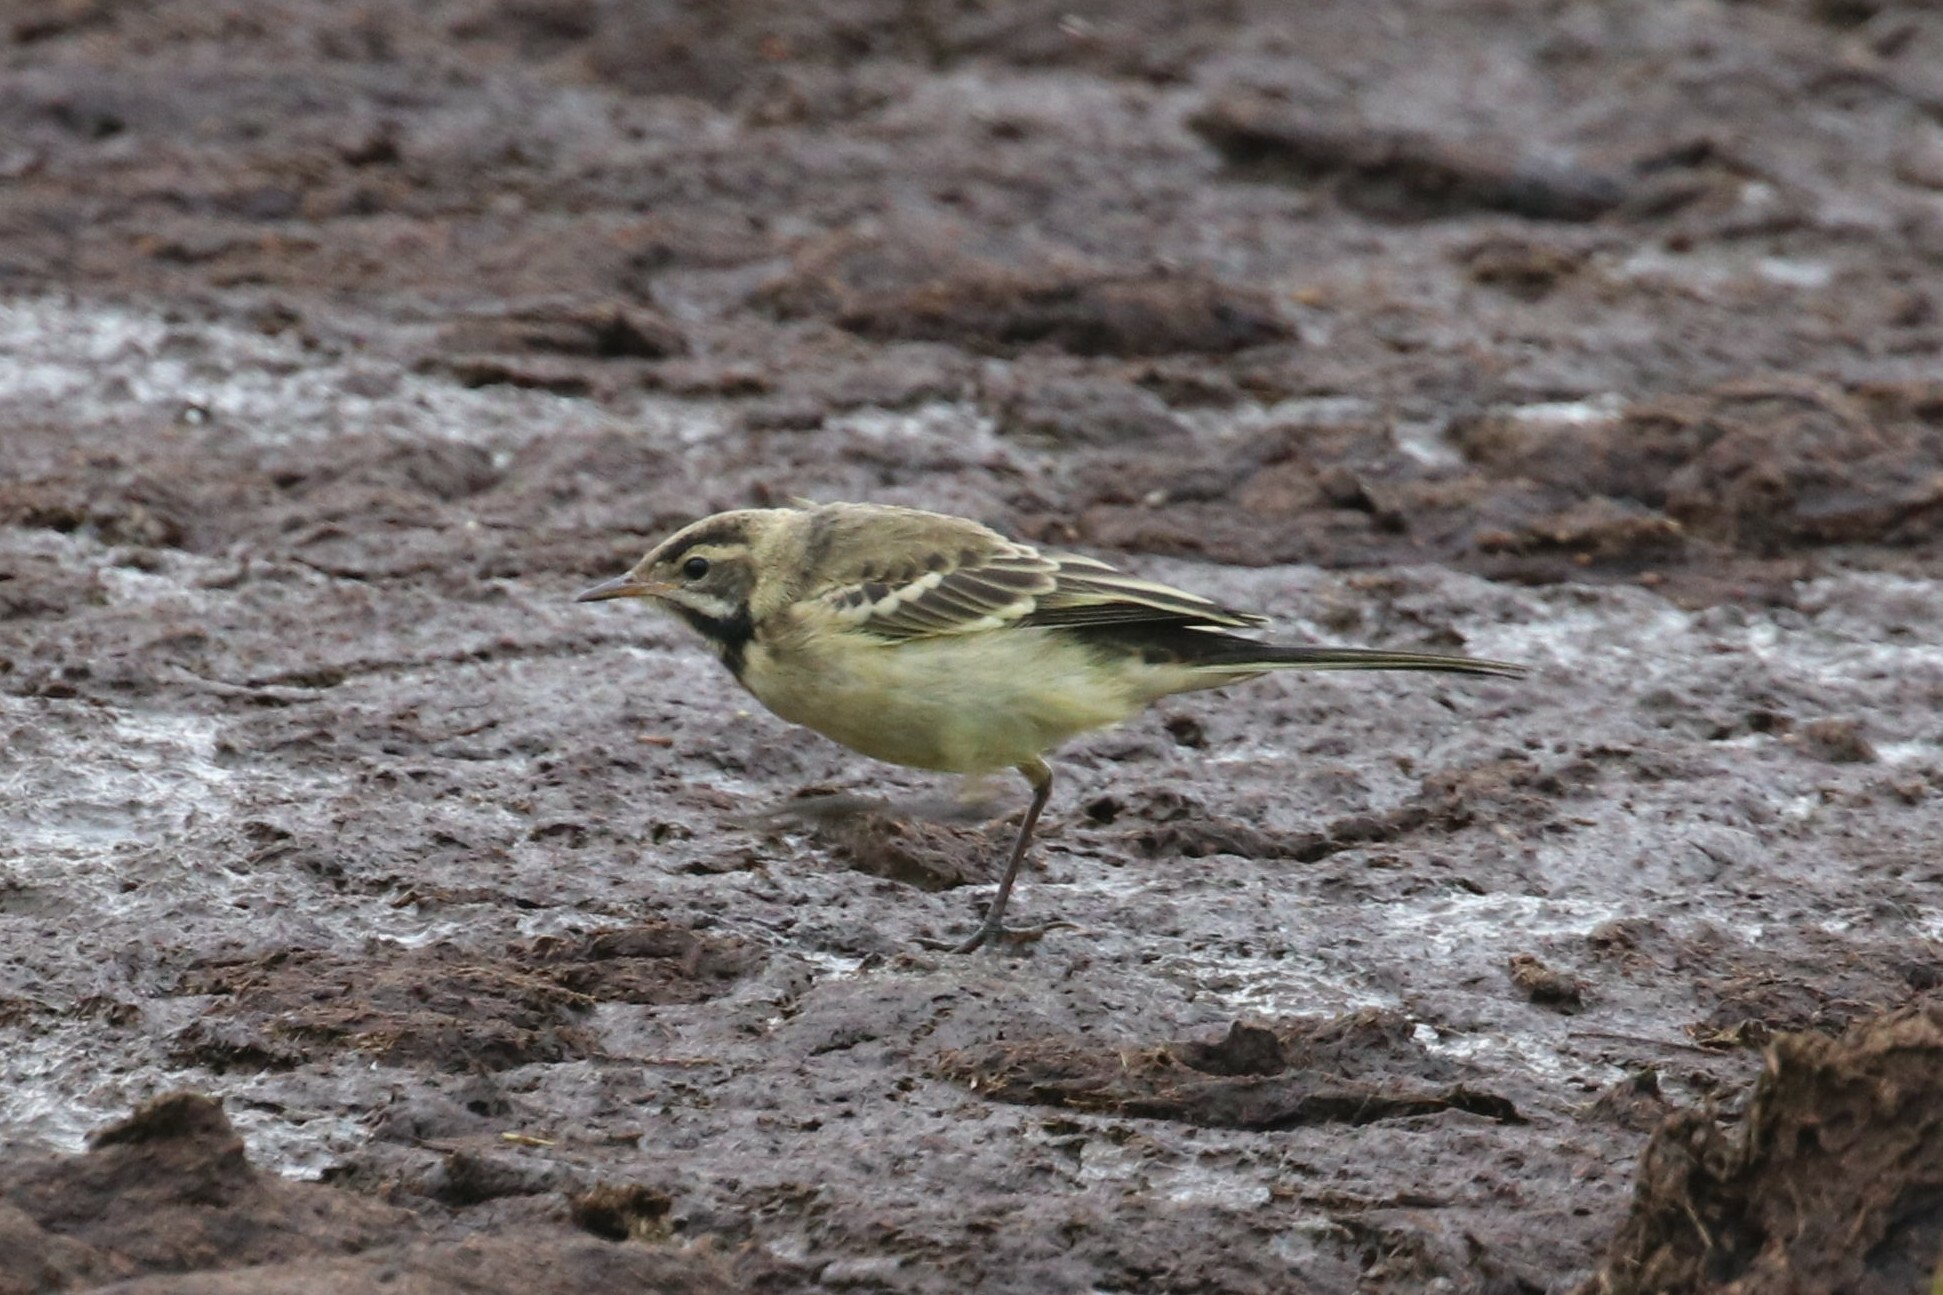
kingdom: Animalia
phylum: Chordata
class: Aves
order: Passeriformes
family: Motacillidae
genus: Motacilla
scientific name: Motacilla flava
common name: Western yellow wagtail
